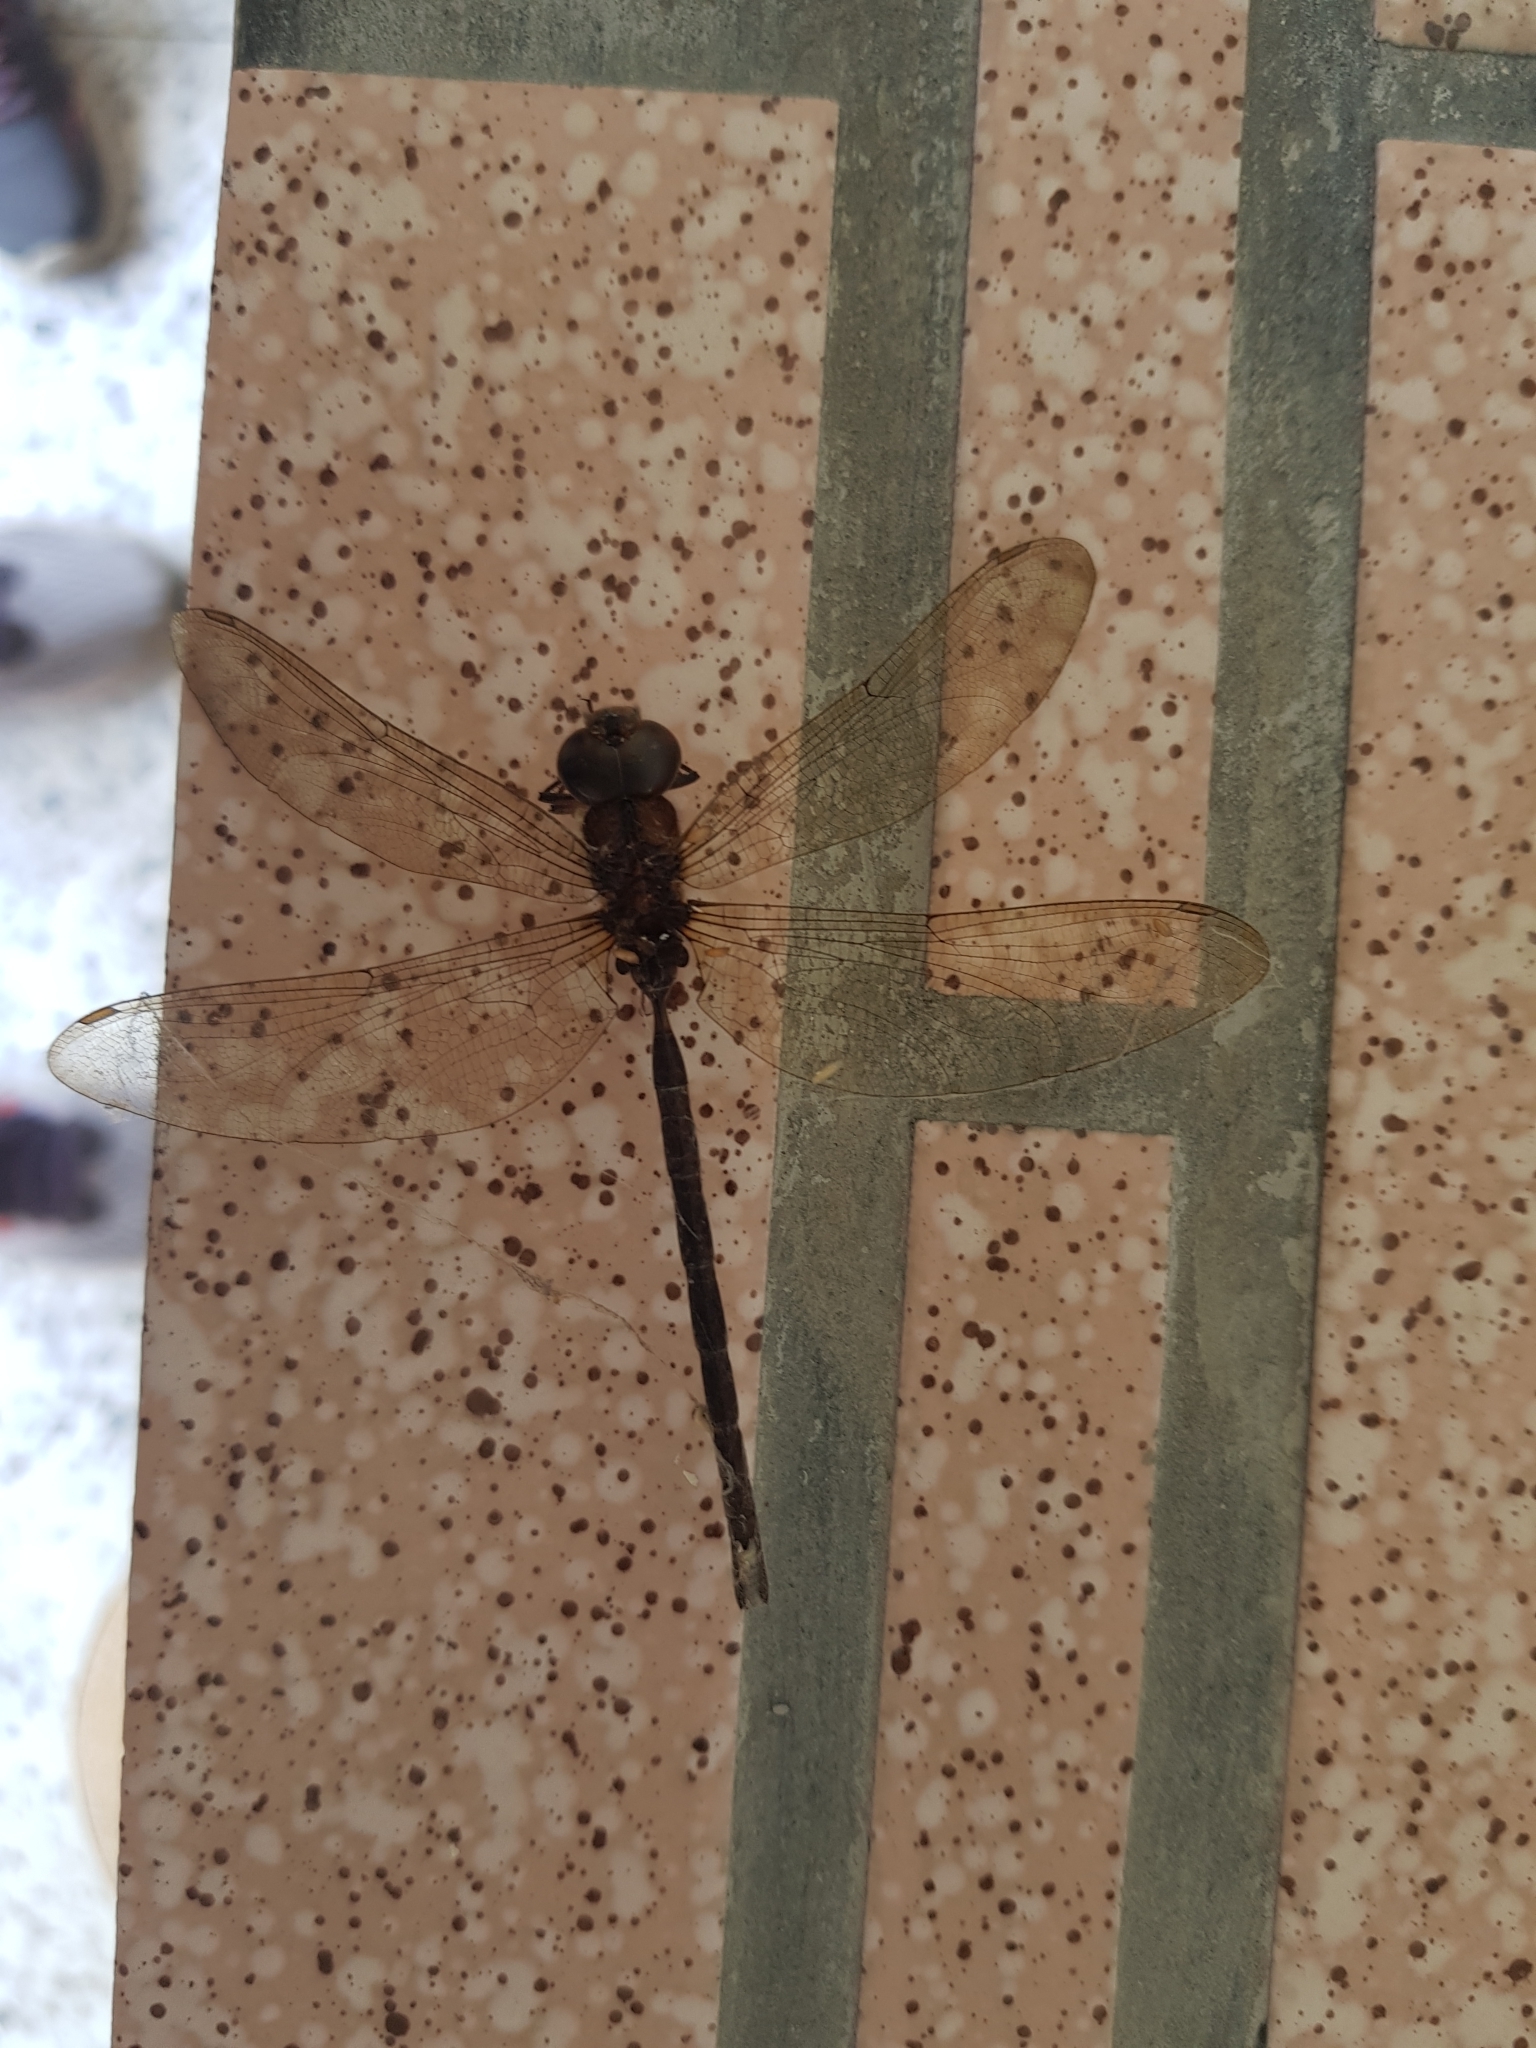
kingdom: Animalia
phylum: Arthropoda
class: Insecta
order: Odonata
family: Aeshnidae
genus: Gynacantha
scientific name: Gynacantha subinterrupta
